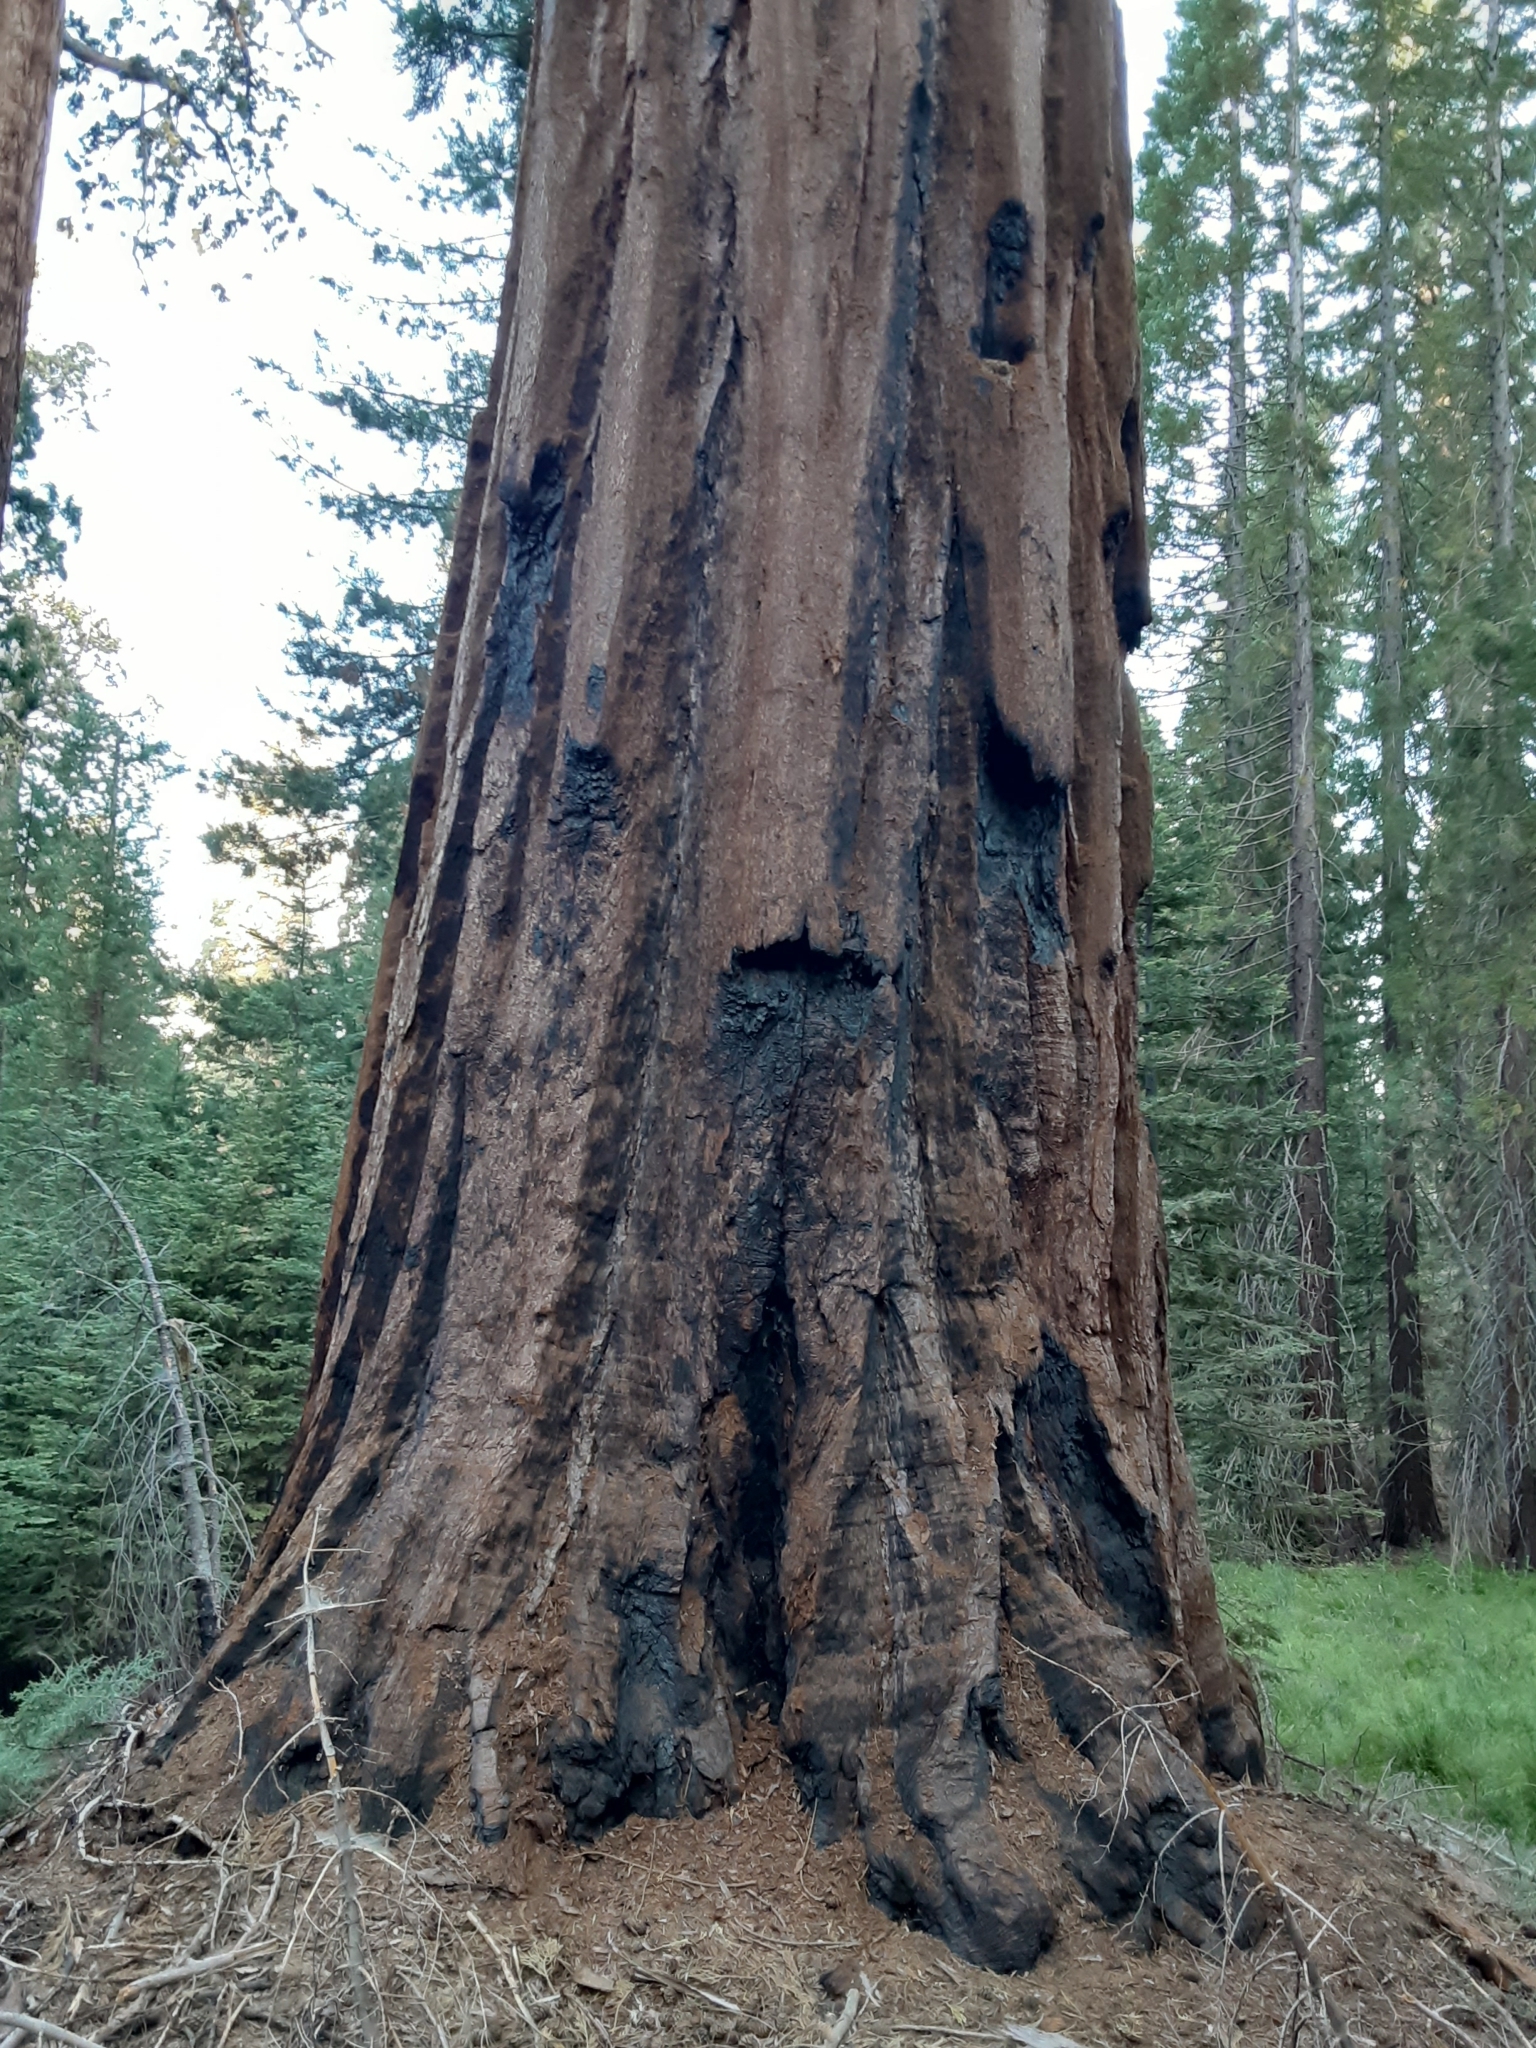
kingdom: Plantae
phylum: Tracheophyta
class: Pinopsida
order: Pinales
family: Cupressaceae
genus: Sequoiadendron
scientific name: Sequoiadendron giganteum
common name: Wellingtonia
